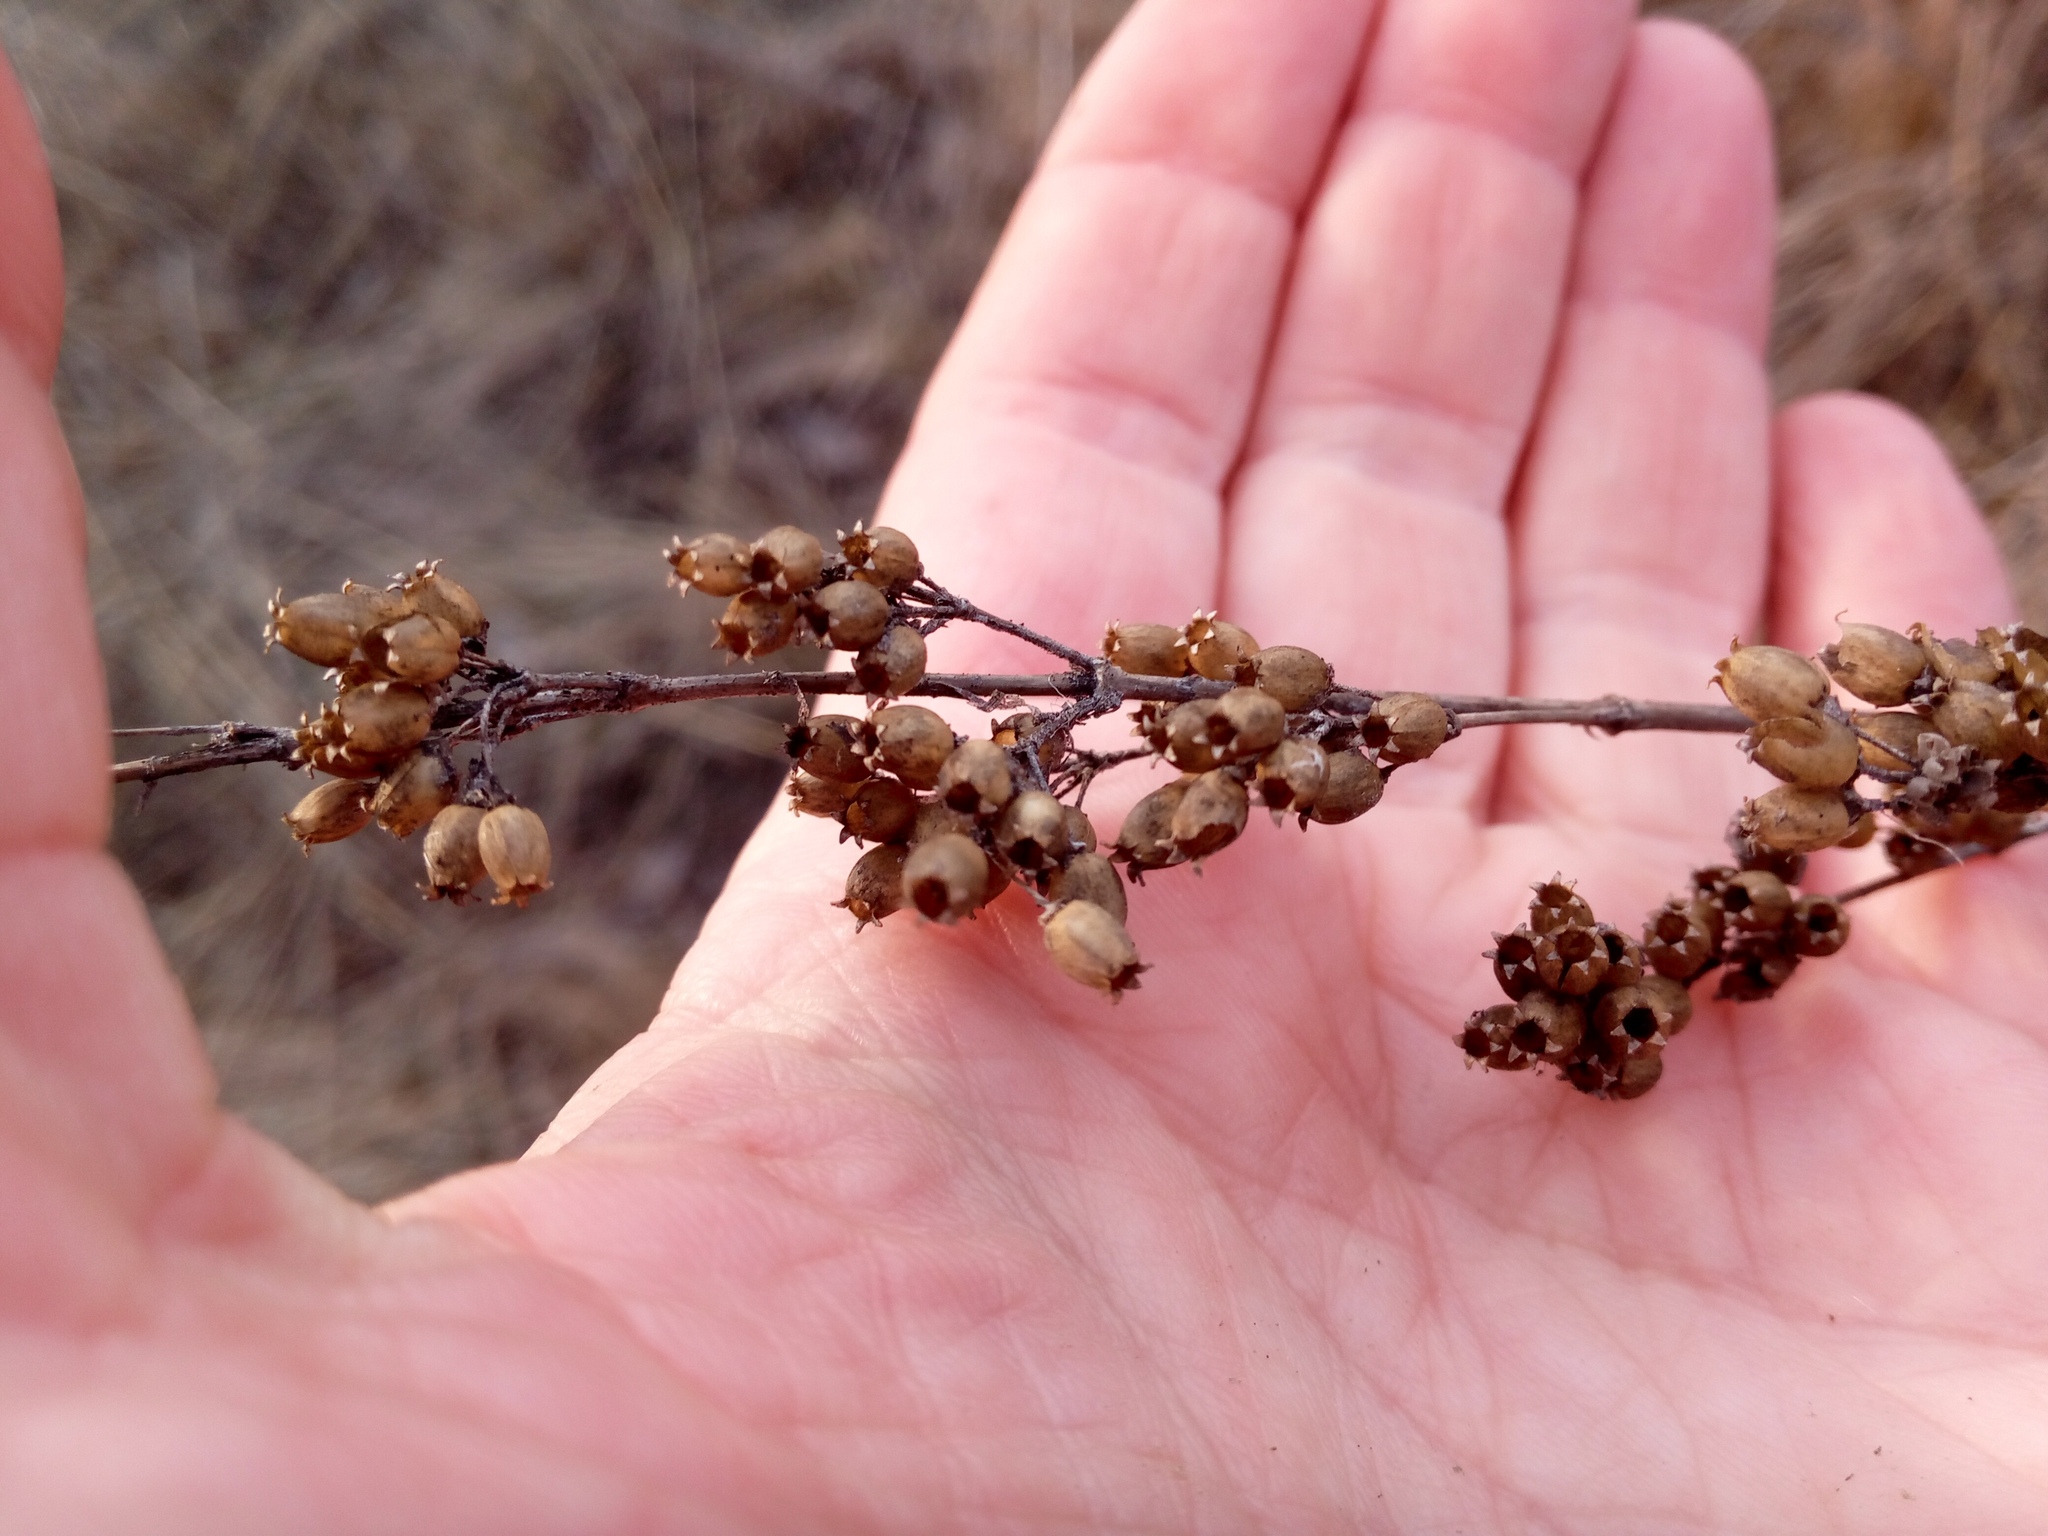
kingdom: Plantae
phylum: Tracheophyta
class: Magnoliopsida
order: Caryophyllales
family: Caryophyllaceae
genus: Silene
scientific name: Silene nutans
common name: Nottingham catchfly
